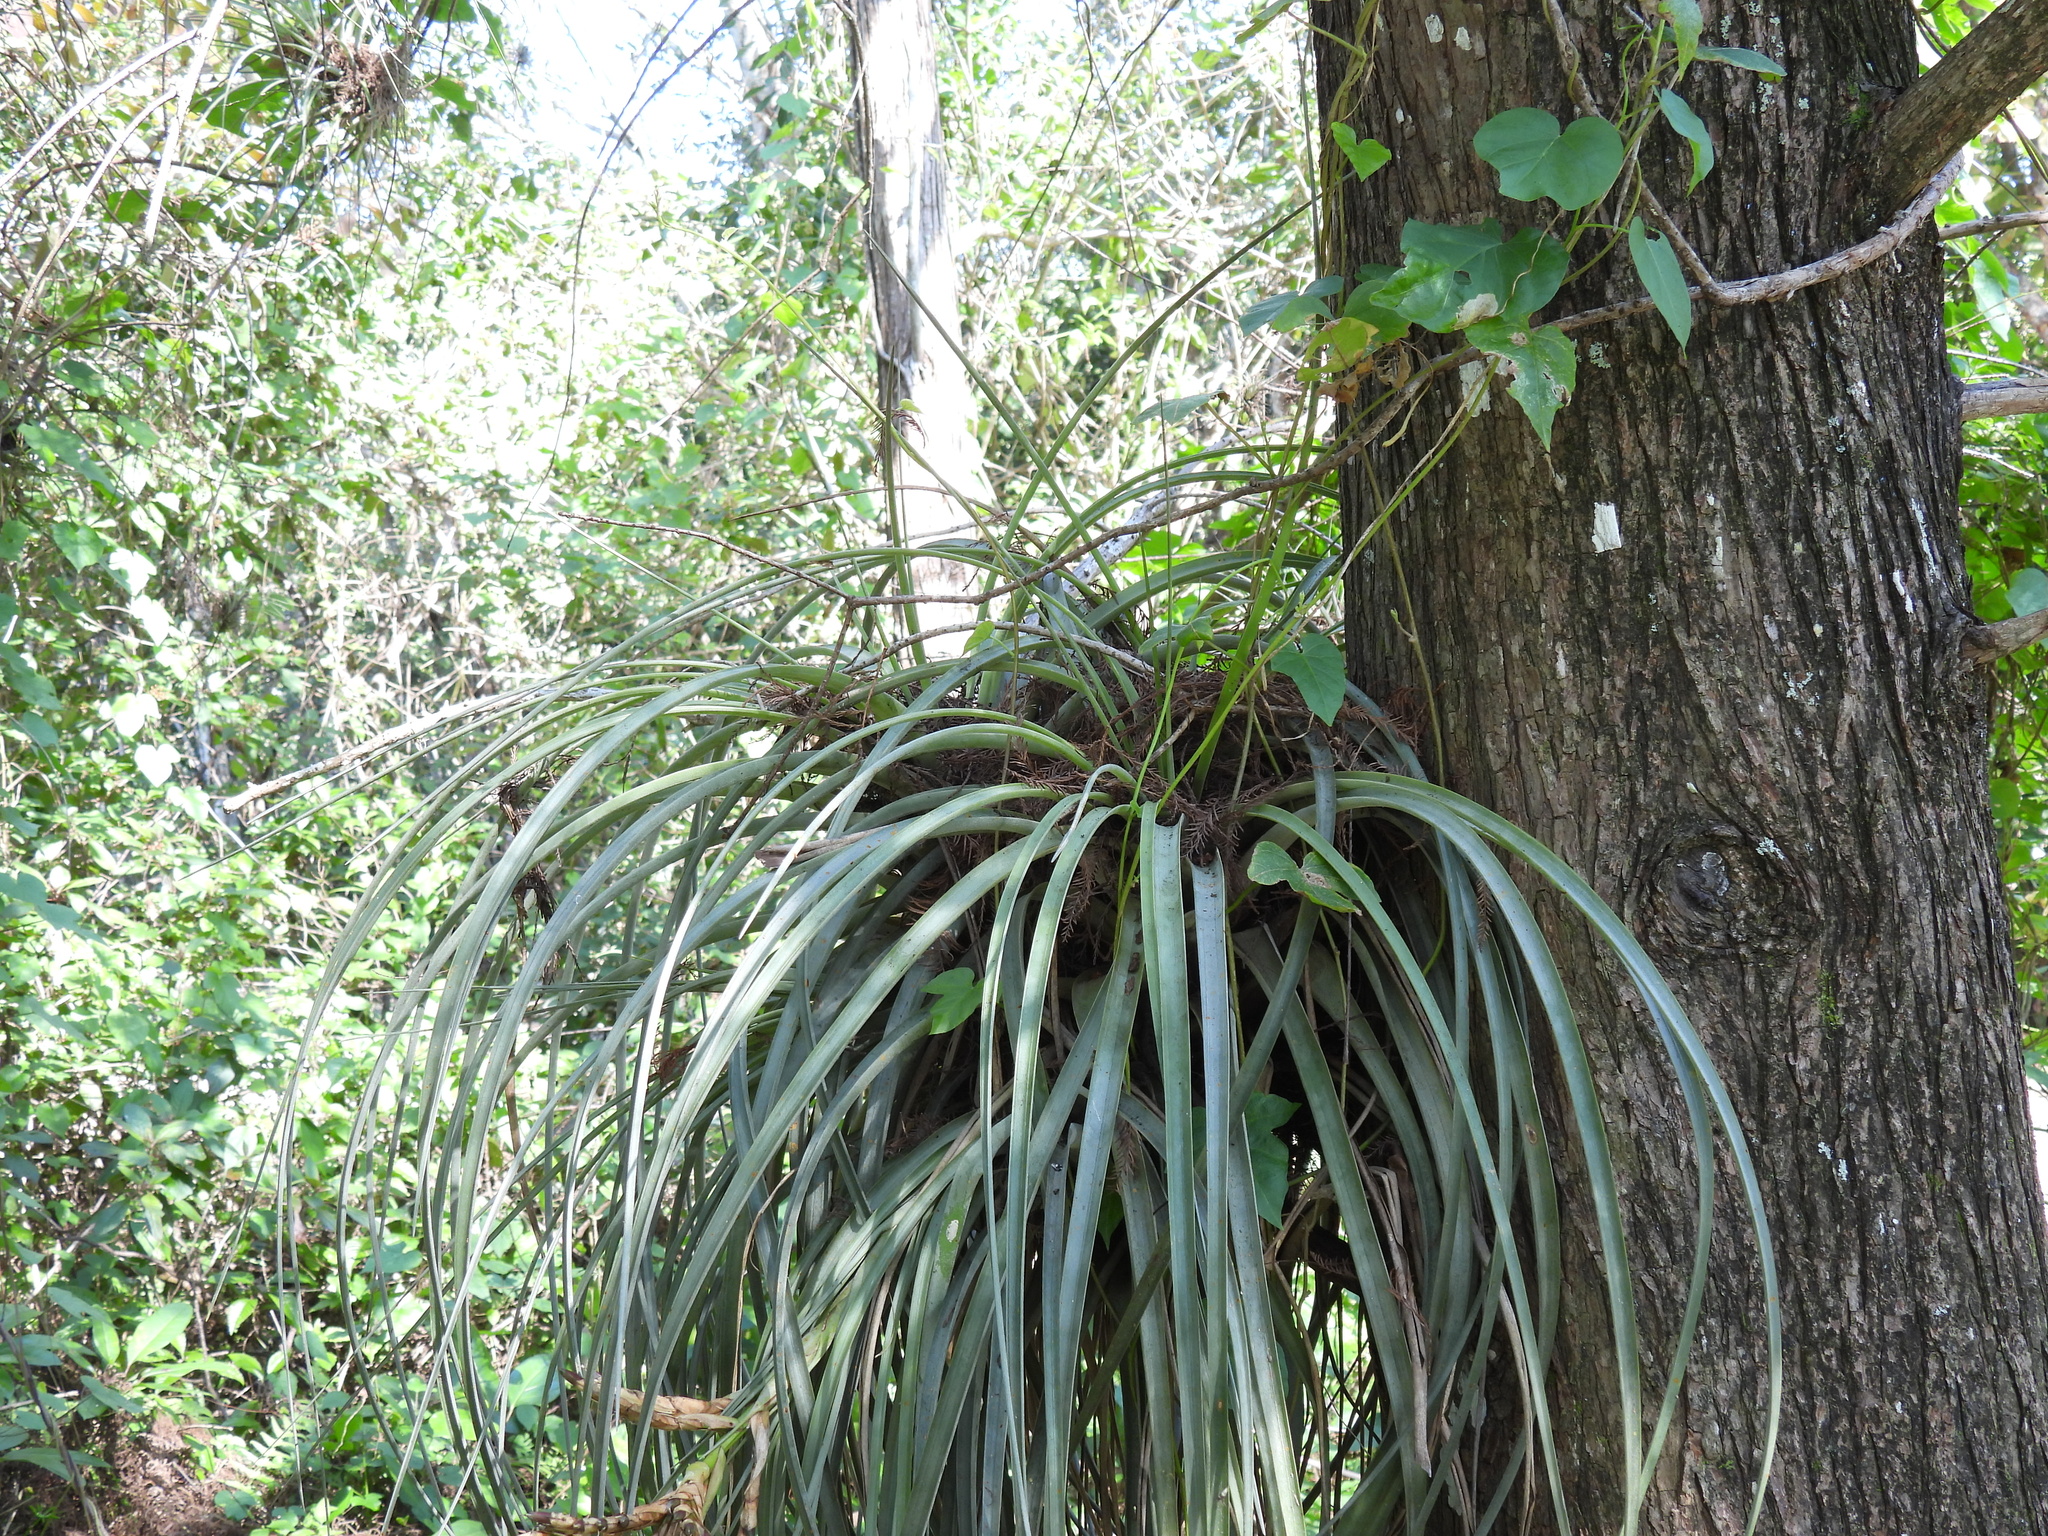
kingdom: Plantae
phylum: Tracheophyta
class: Liliopsida
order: Poales
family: Bromeliaceae
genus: Tillandsia
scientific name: Tillandsia fasciculata
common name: Giant airplant
